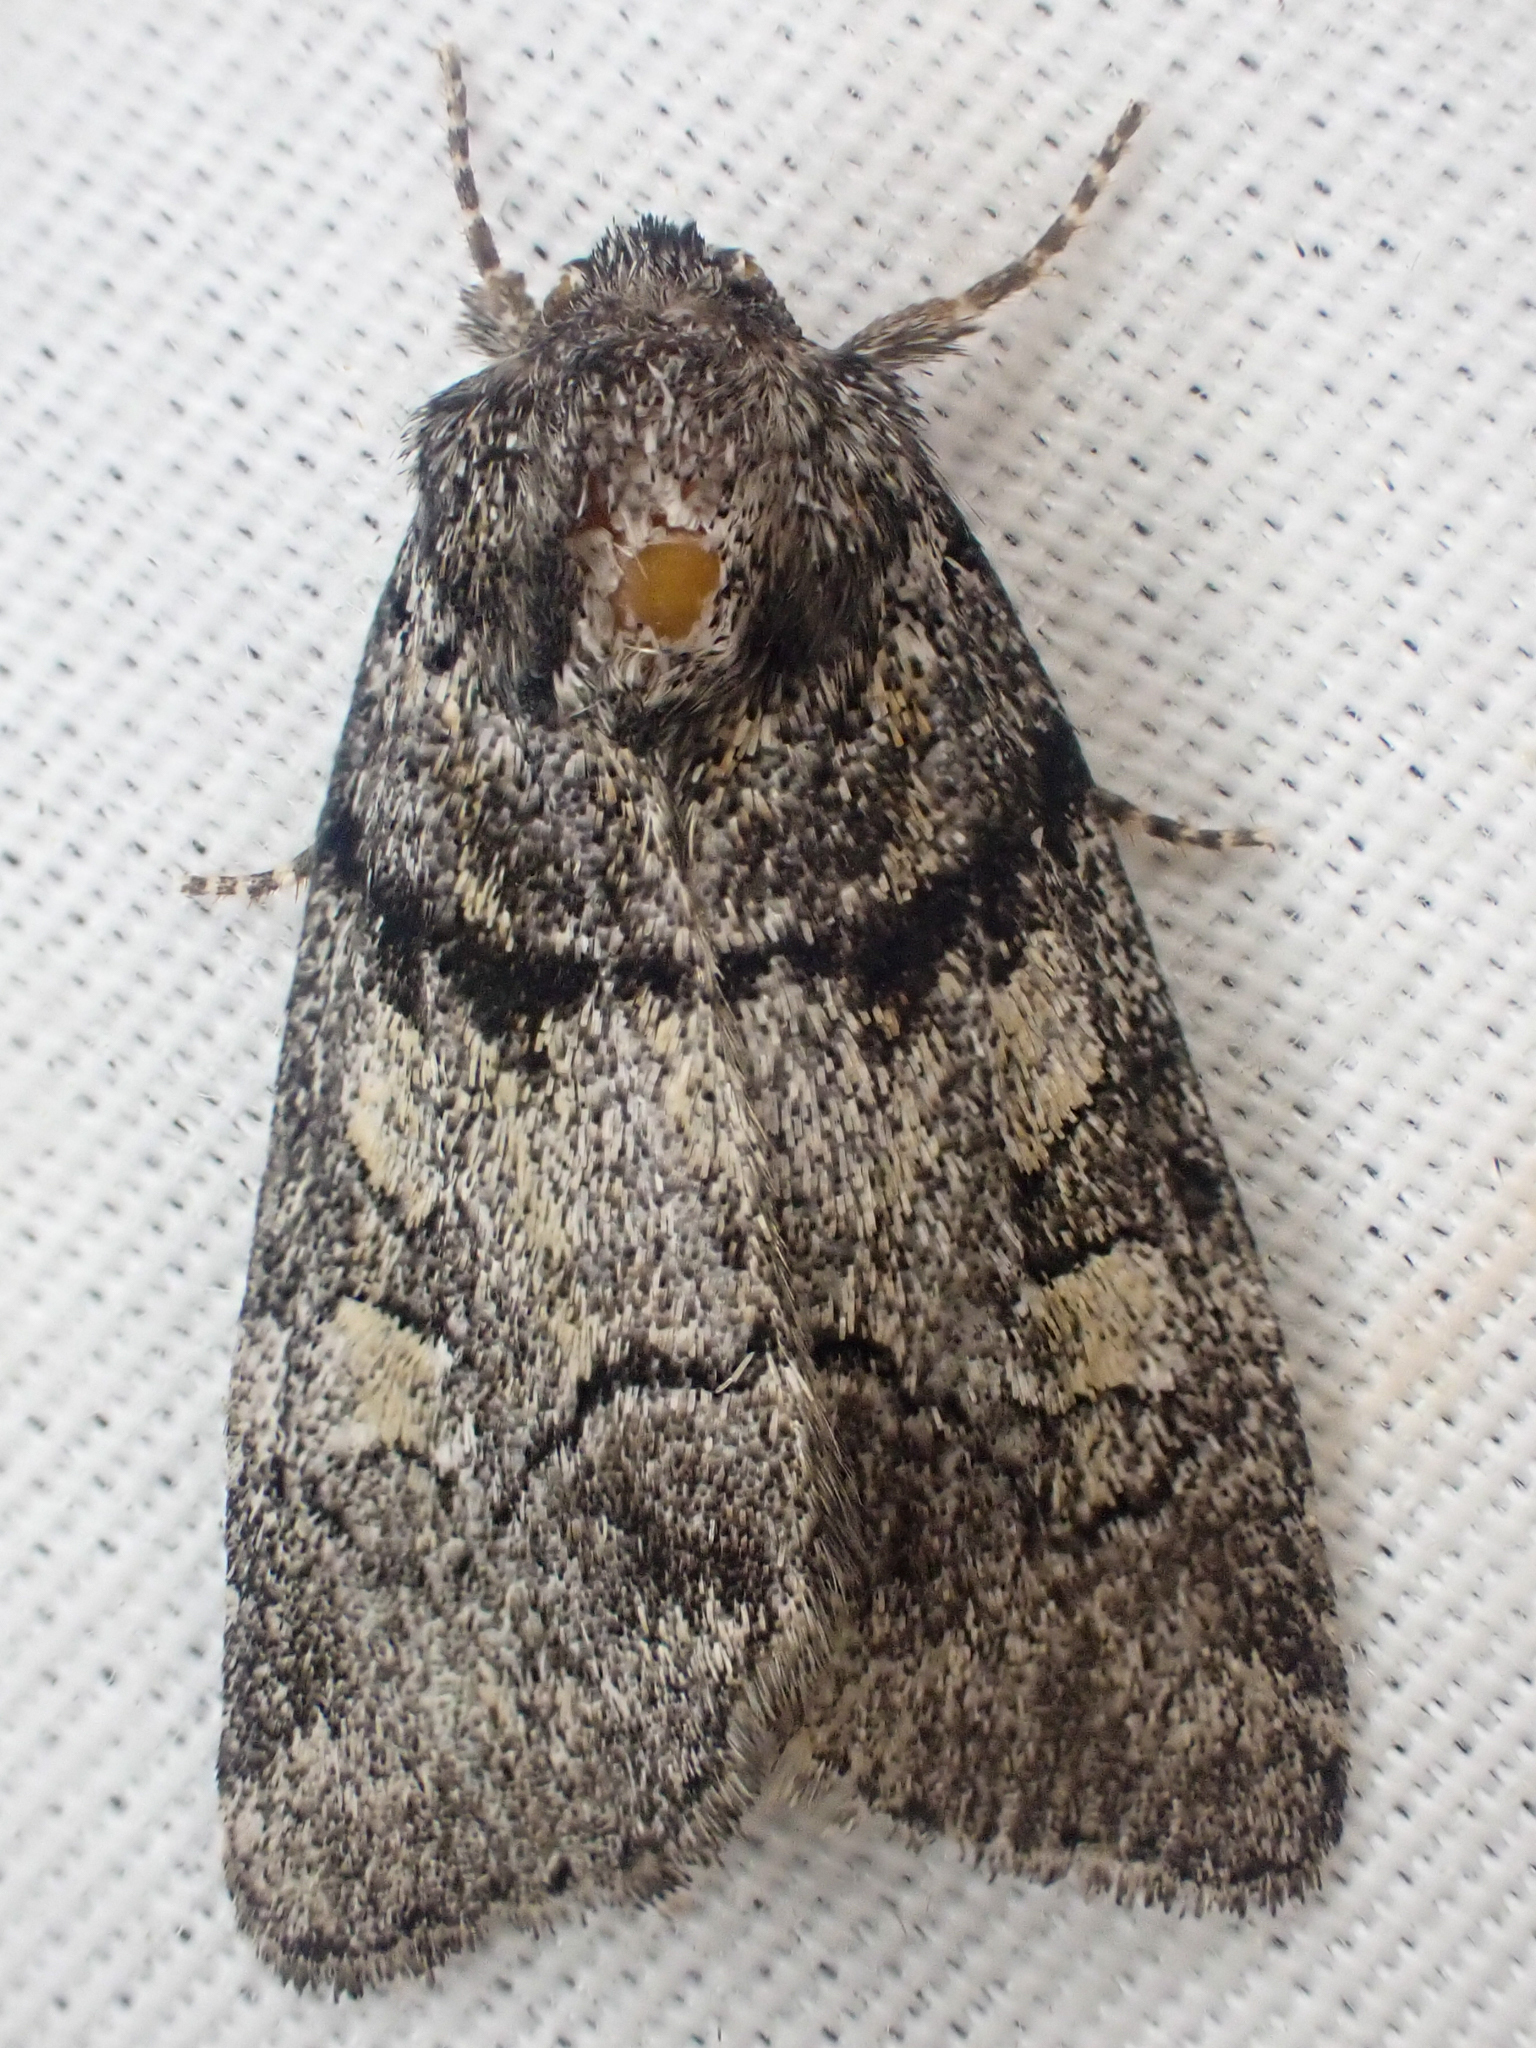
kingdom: Animalia
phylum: Arthropoda
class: Insecta
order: Lepidoptera
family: Noctuidae
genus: Cosmia
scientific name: Cosmia praeacuta
